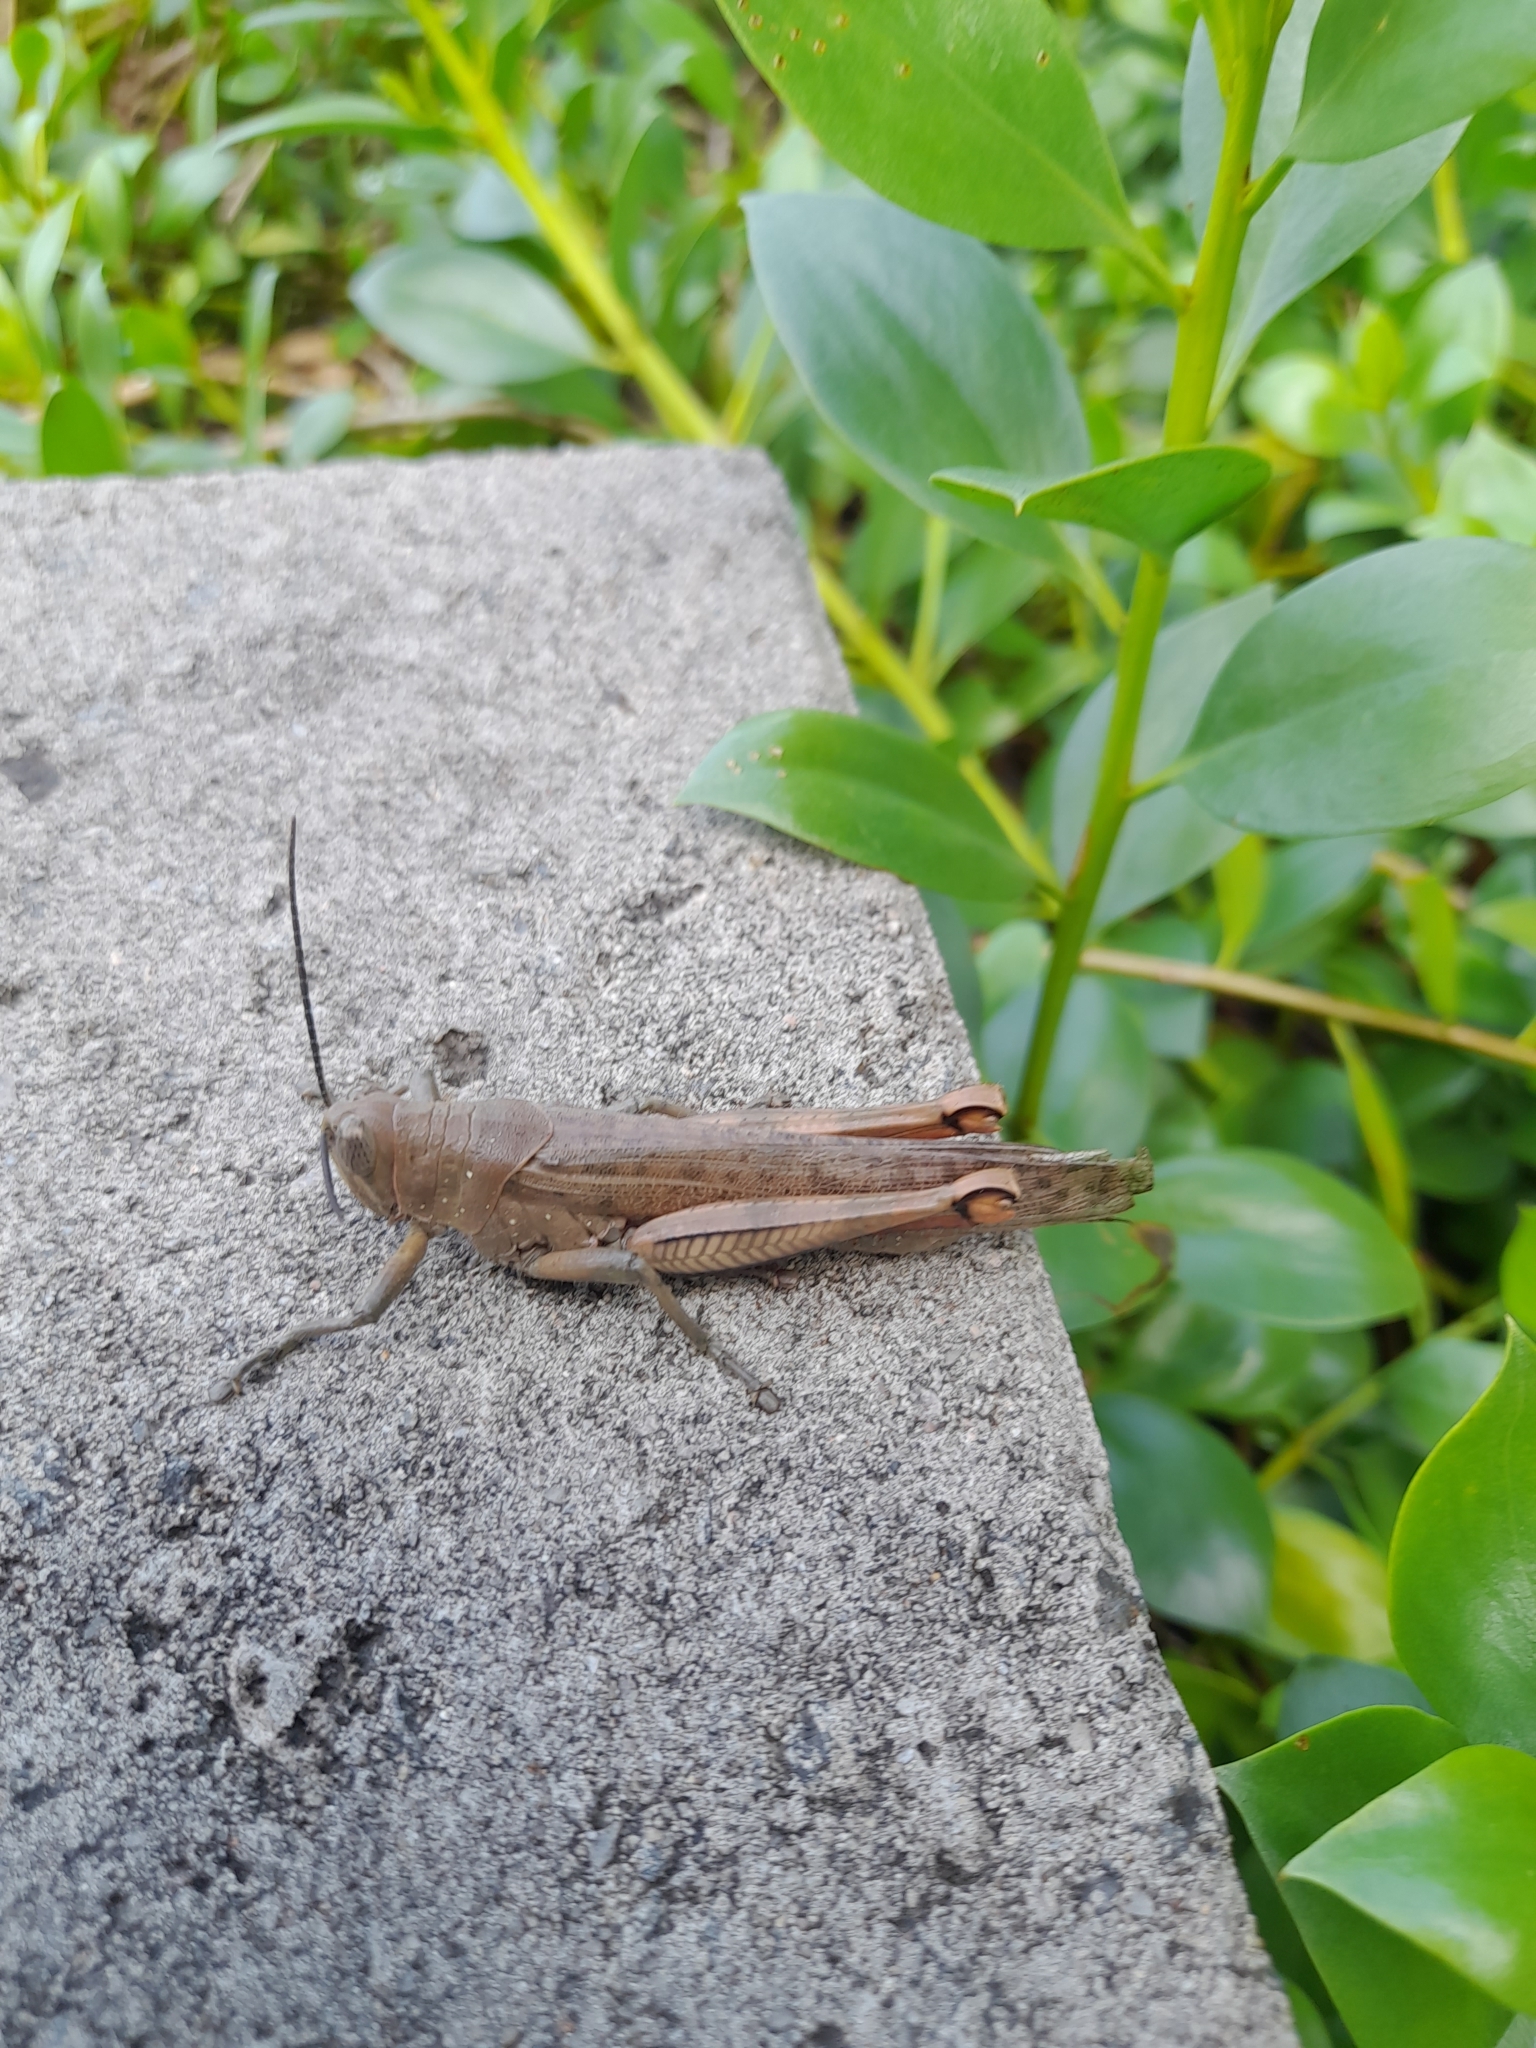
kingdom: Animalia
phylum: Arthropoda
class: Insecta
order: Orthoptera
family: Acrididae
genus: Valanga
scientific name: Valanga irregularis
